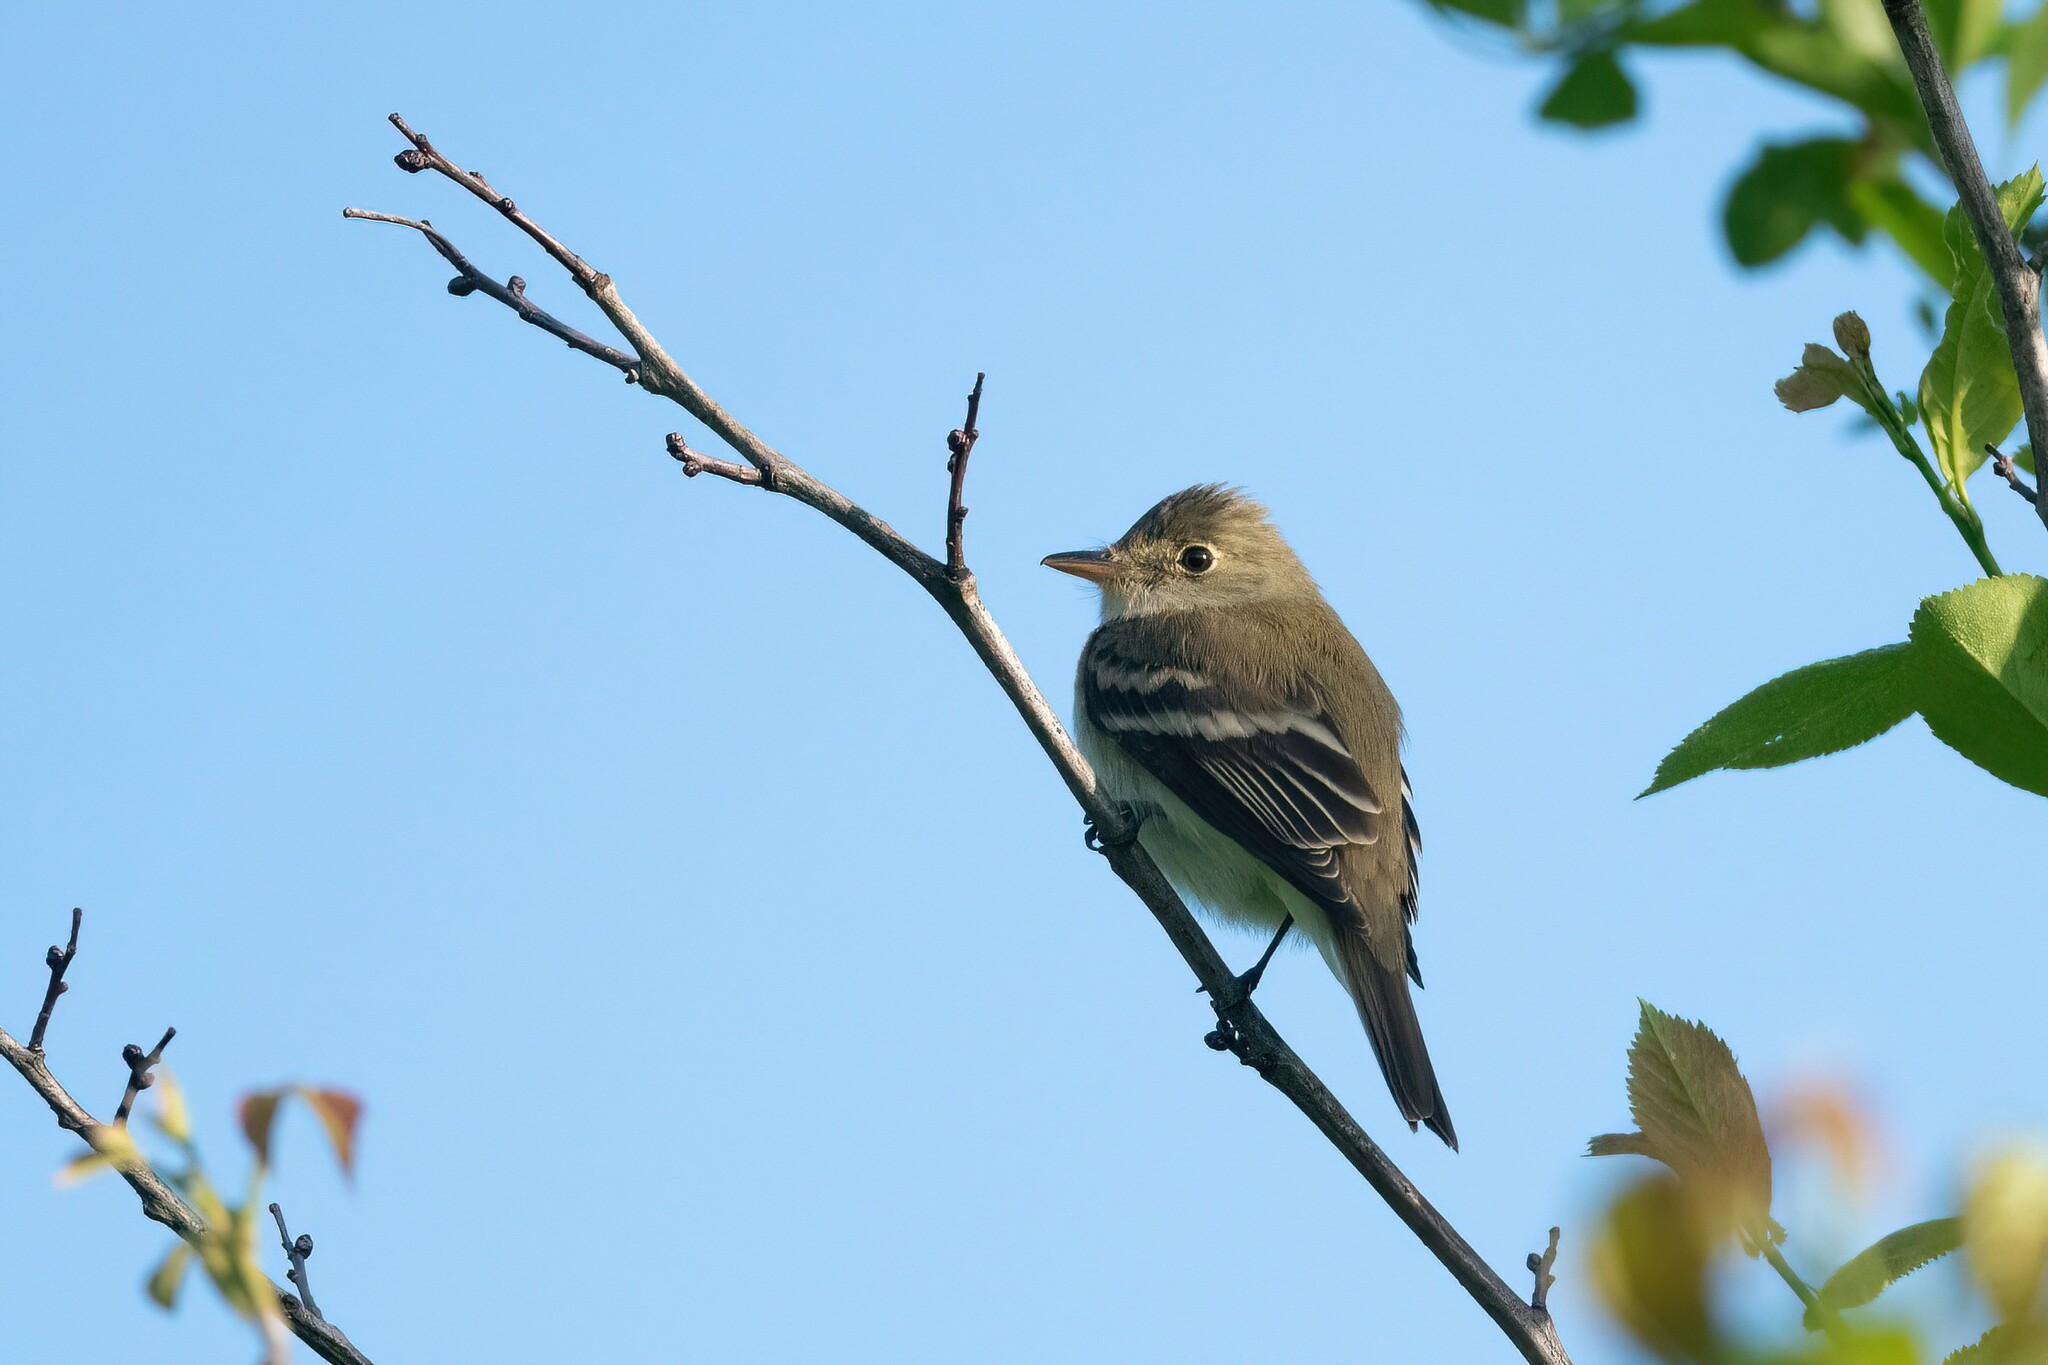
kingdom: Animalia
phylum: Chordata
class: Aves
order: Passeriformes
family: Tyrannidae
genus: Empidonax
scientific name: Empidonax alnorum
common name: Alder flycatcher
